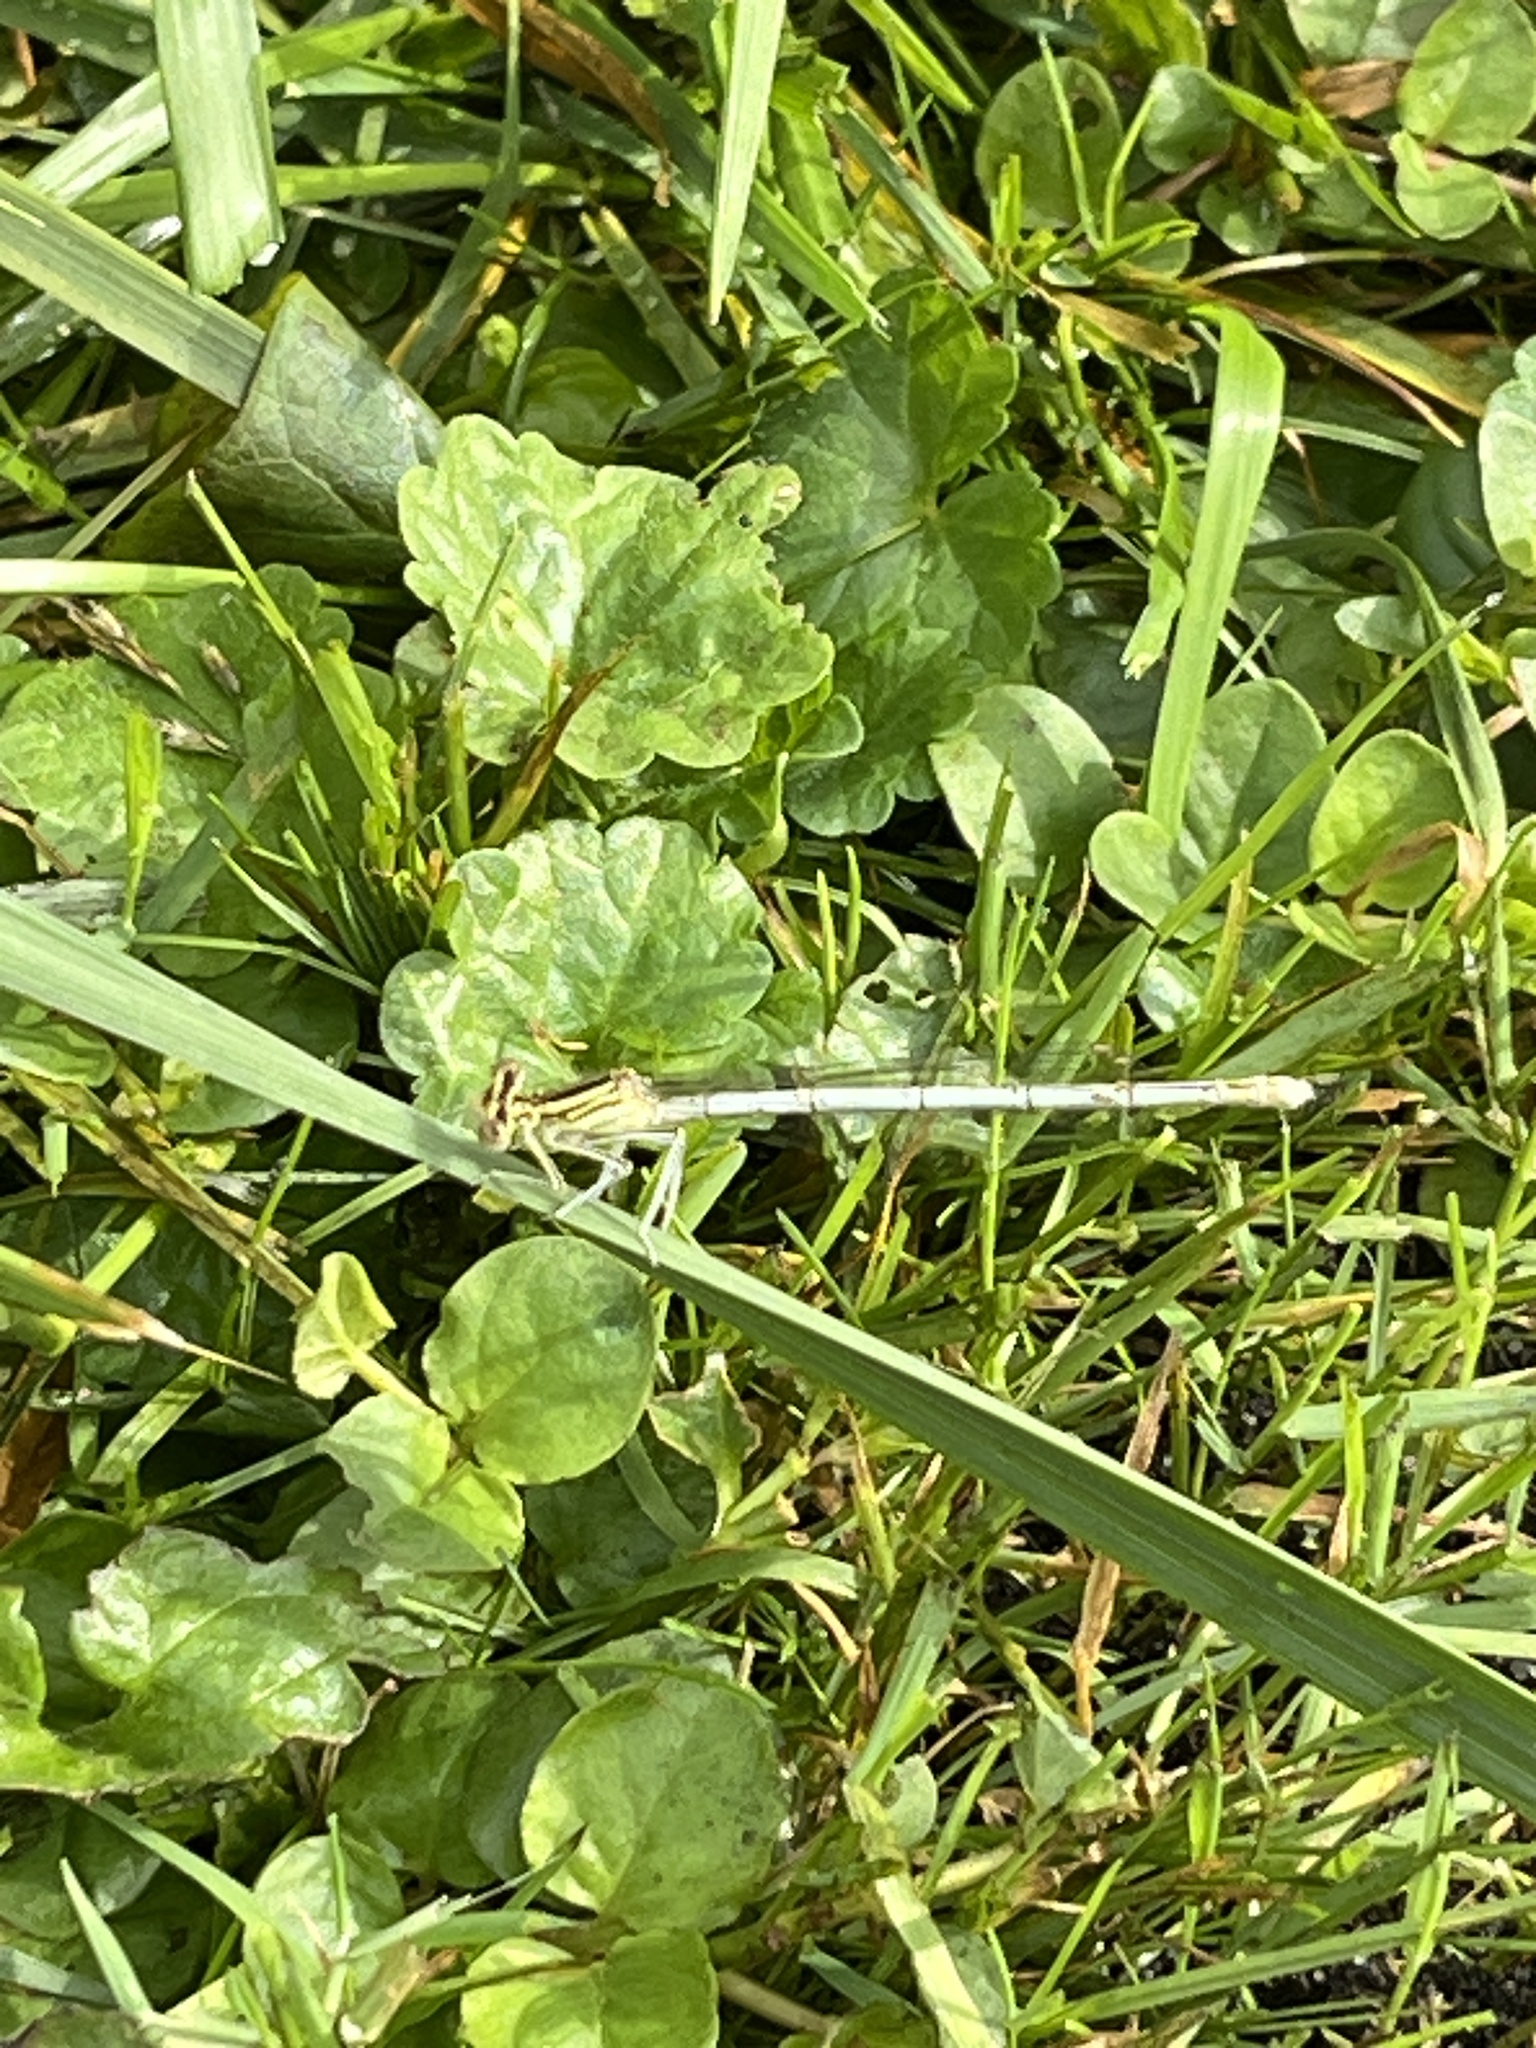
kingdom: Animalia
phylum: Arthropoda
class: Insecta
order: Odonata
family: Platycnemididae
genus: Platycnemis
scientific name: Platycnemis pennipes
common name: White-legged damselfly
